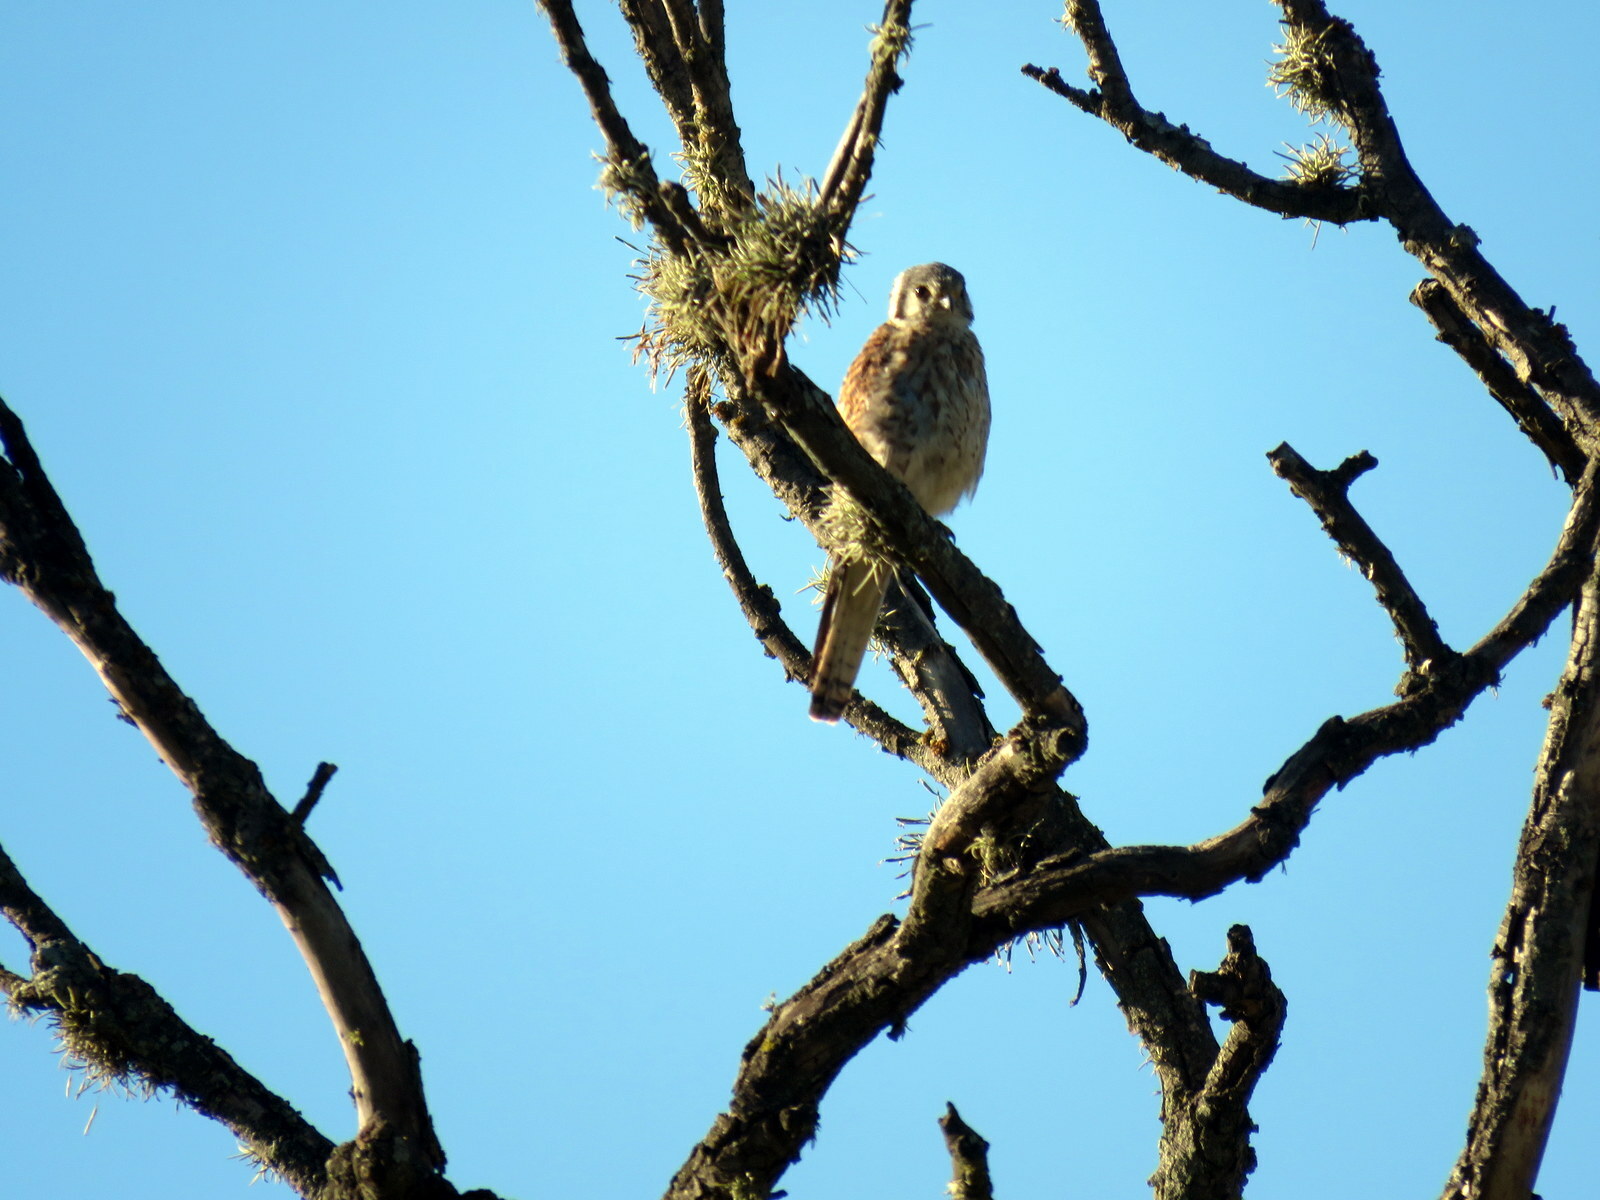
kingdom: Animalia
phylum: Chordata
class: Aves
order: Falconiformes
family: Falconidae
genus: Falco
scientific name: Falco sparverius
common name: American kestrel
